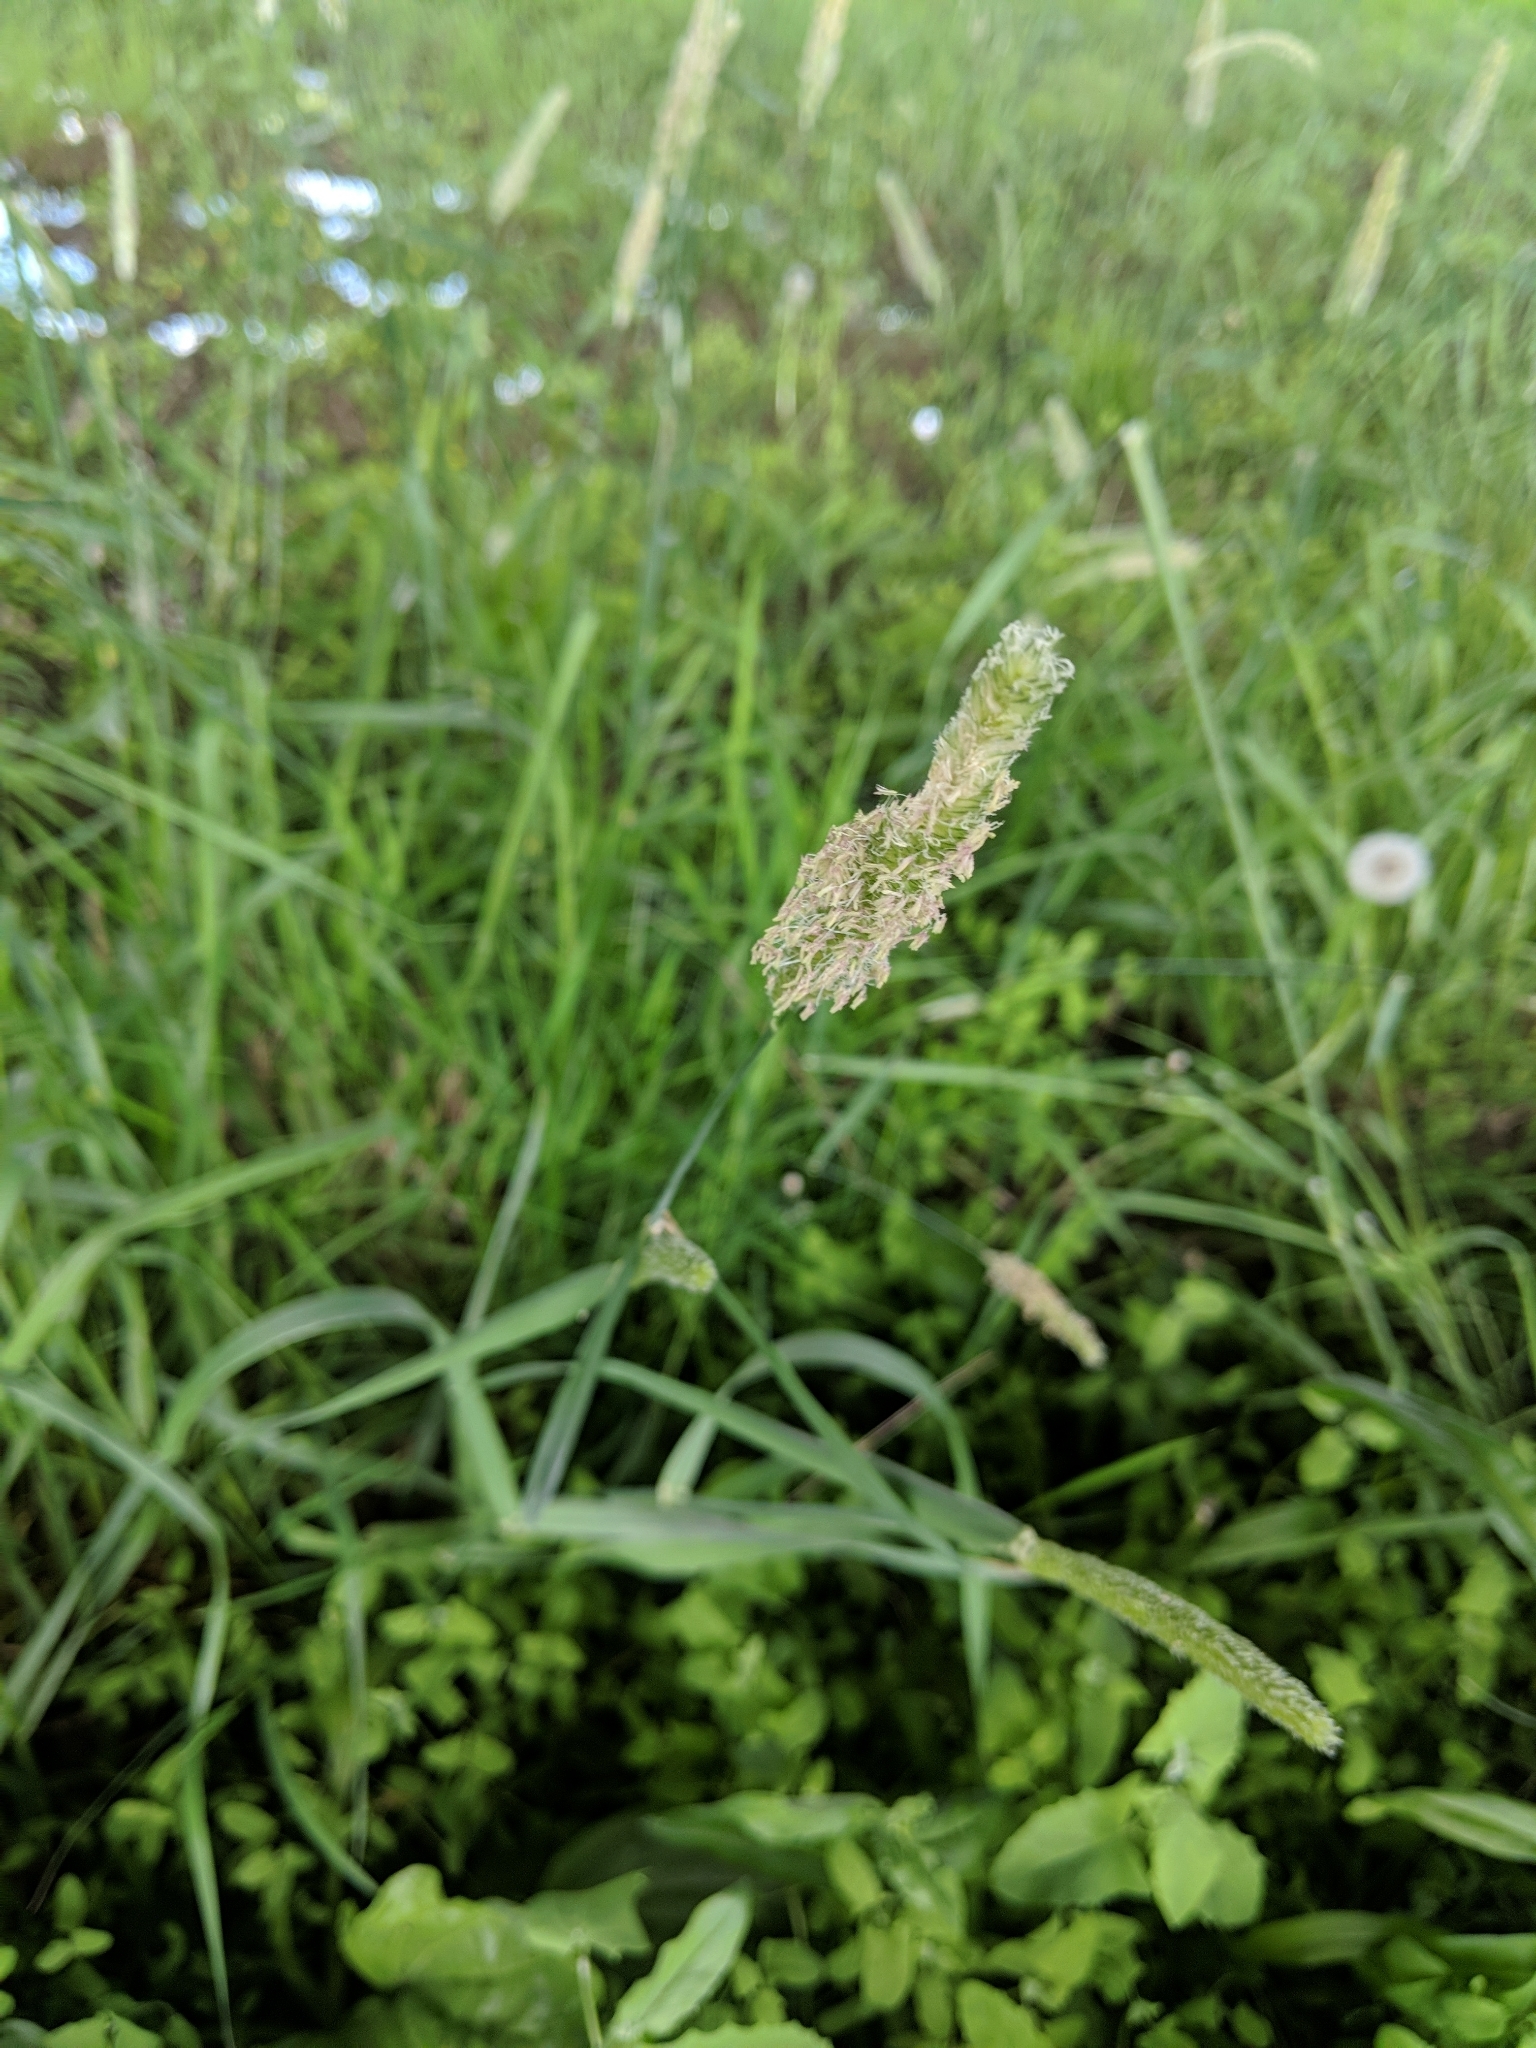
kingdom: Plantae
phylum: Tracheophyta
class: Liliopsida
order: Poales
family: Poaceae
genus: Alopecurus
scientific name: Alopecurus pratensis
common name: Meadow foxtail
